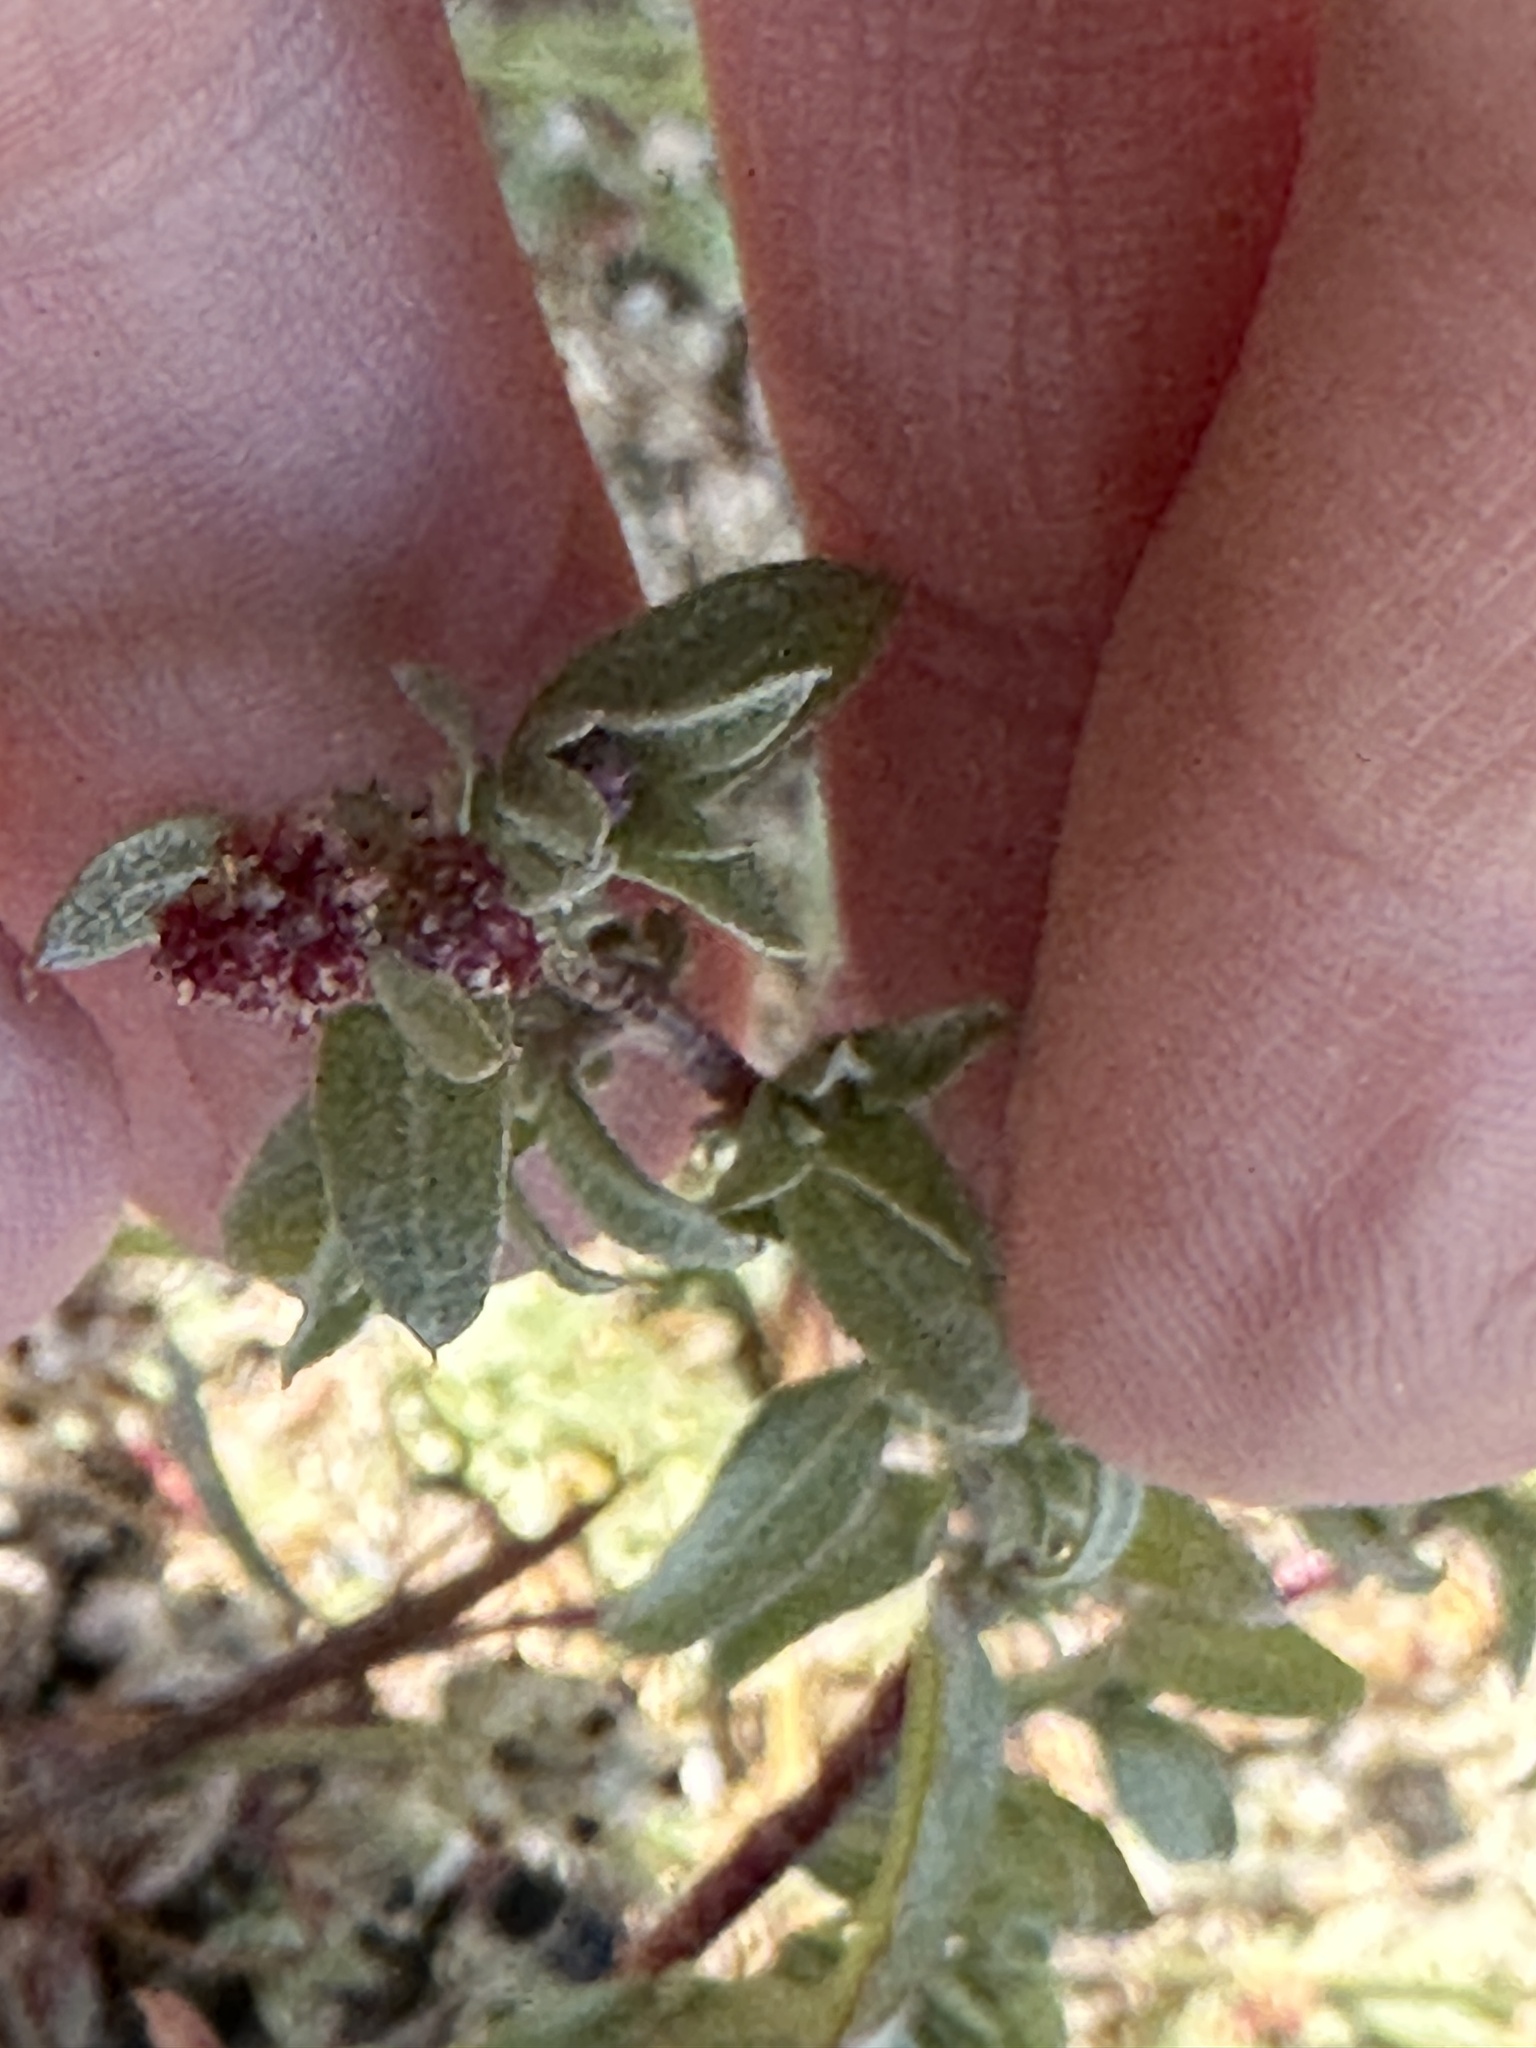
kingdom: Plantae
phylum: Tracheophyta
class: Magnoliopsida
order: Caryophyllales
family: Amaranthaceae
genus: Atriplex
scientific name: Atriplex coulteri
